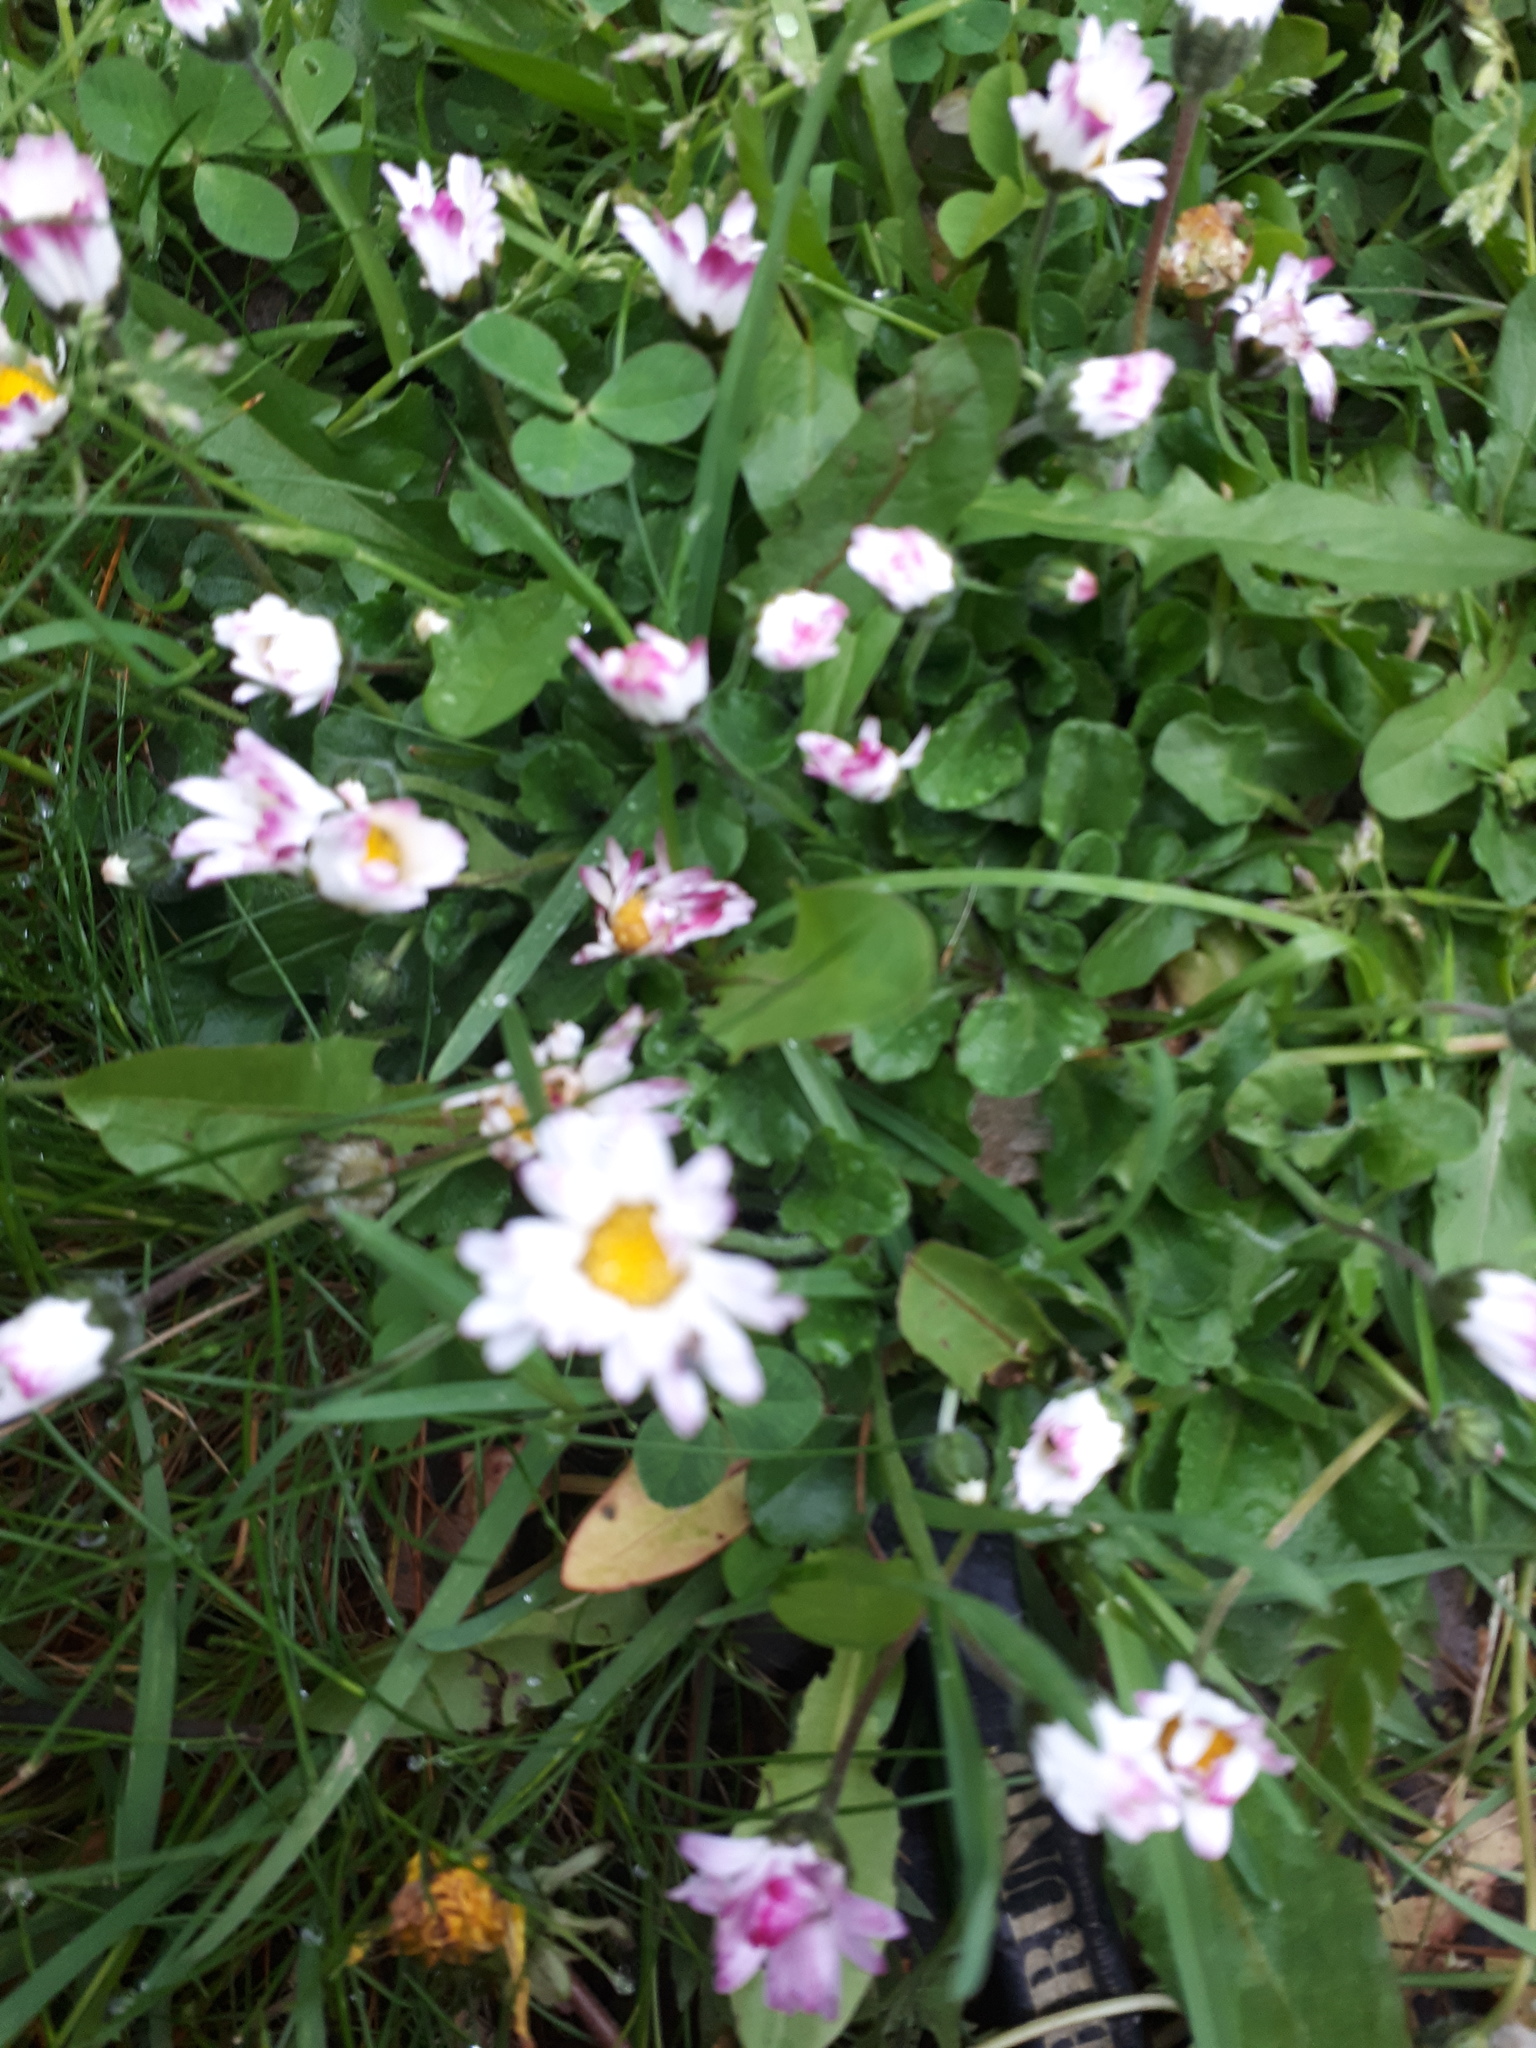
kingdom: Plantae
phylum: Tracheophyta
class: Magnoliopsida
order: Asterales
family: Asteraceae
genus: Bellis
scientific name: Bellis perennis
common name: Lawndaisy
